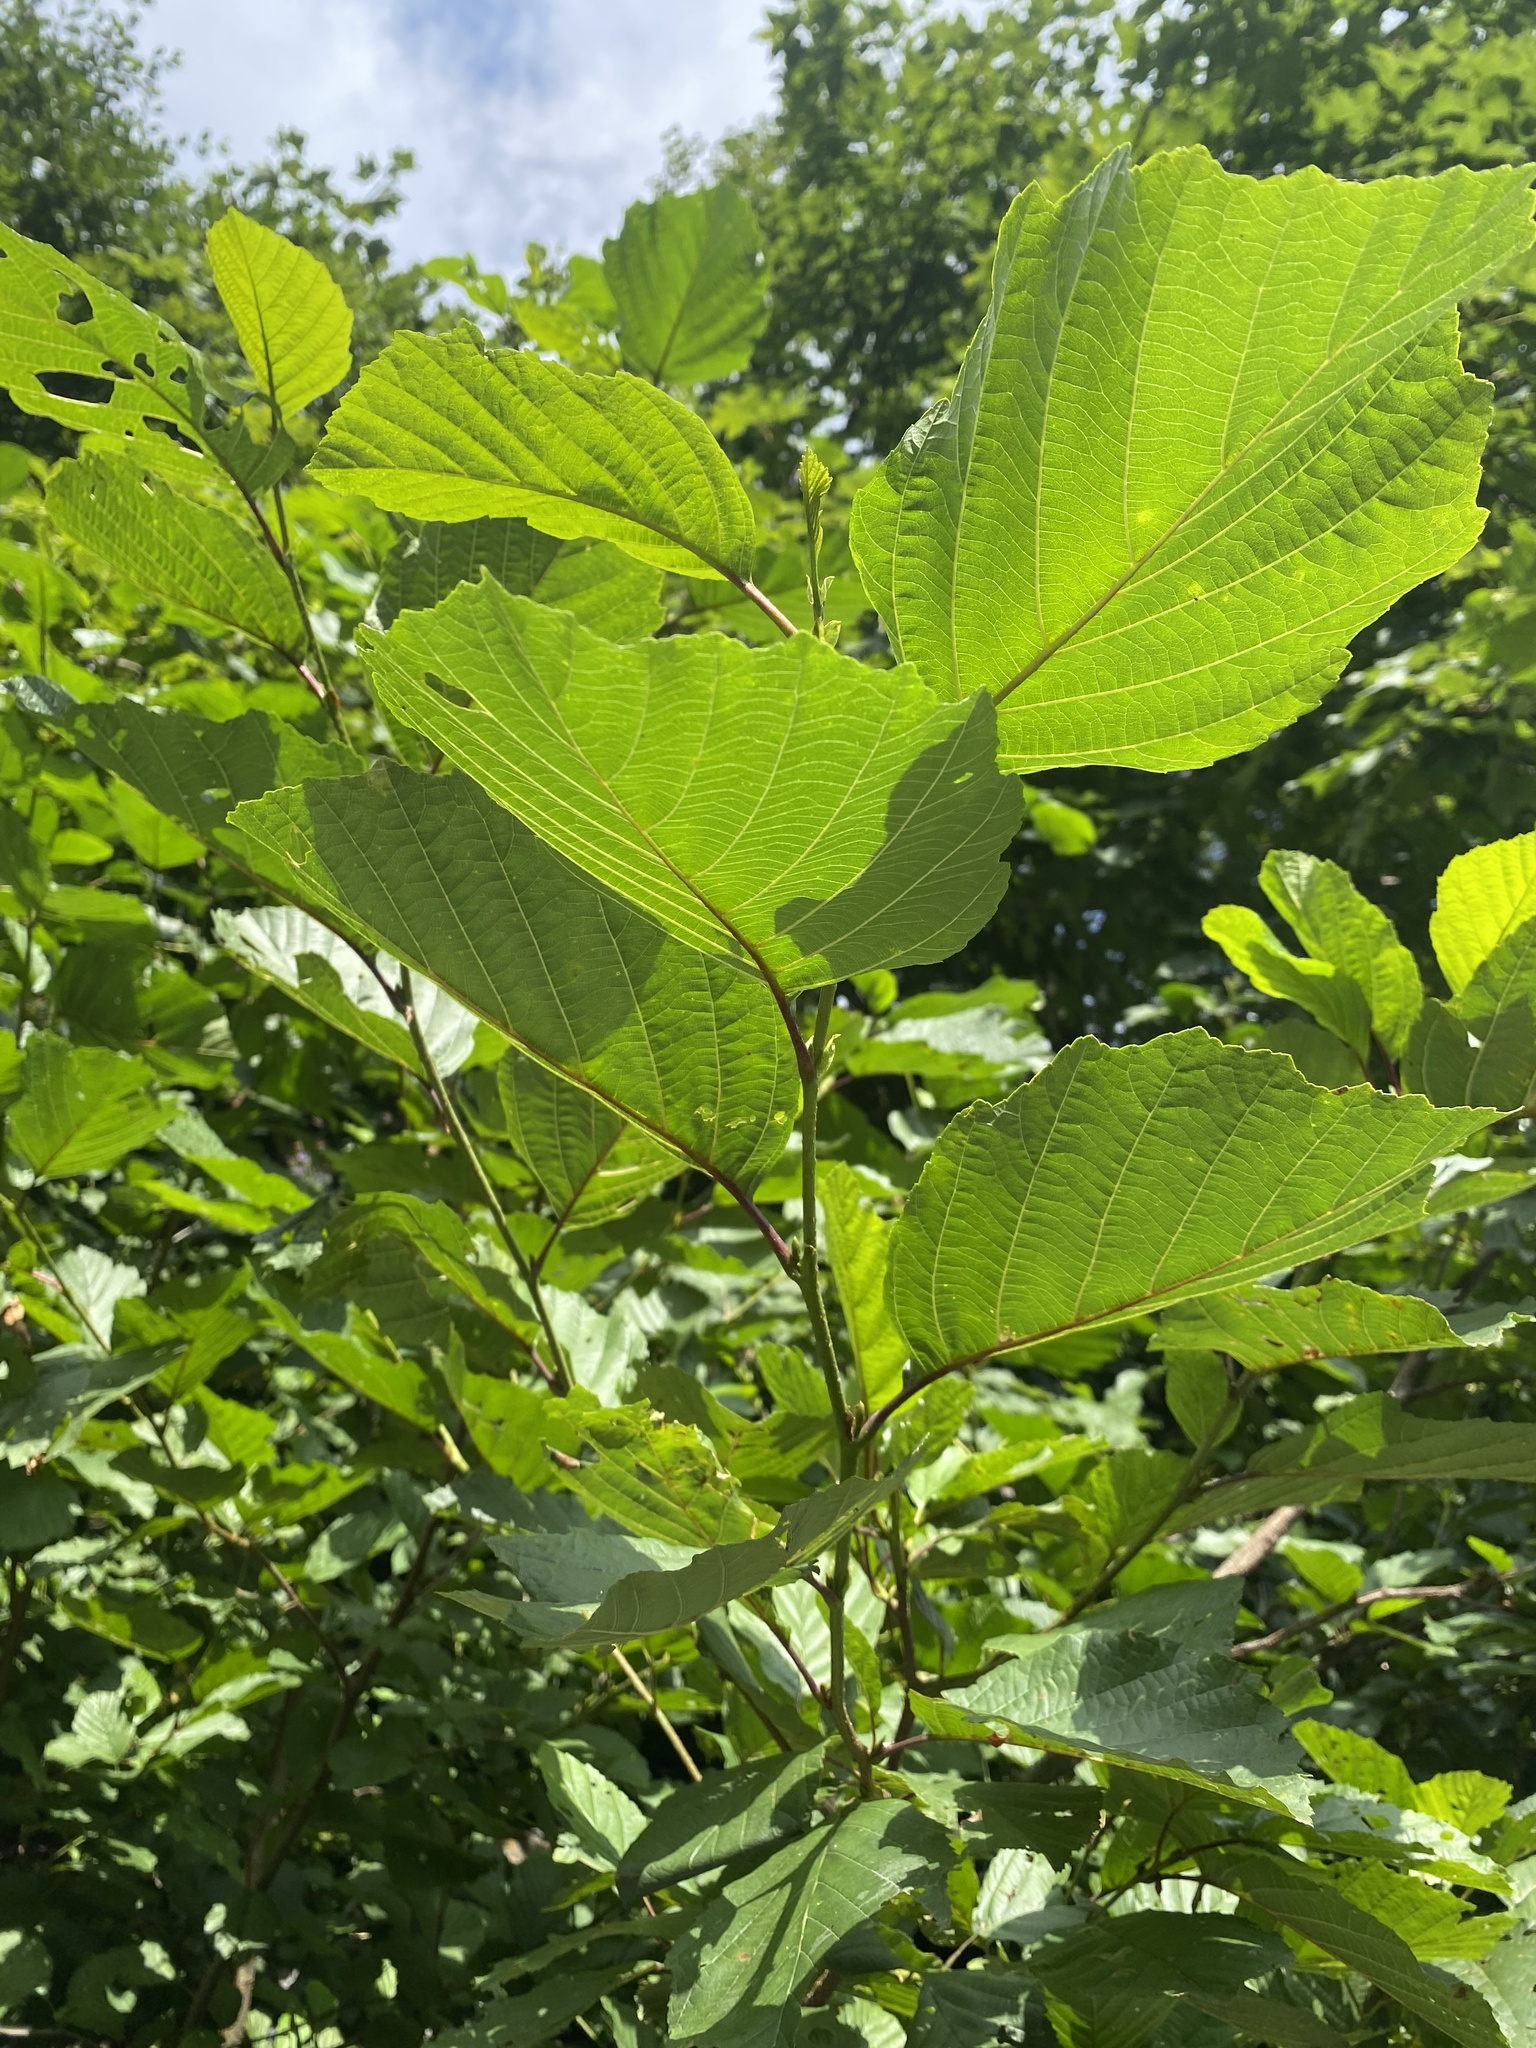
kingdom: Plantae
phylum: Tracheophyta
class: Magnoliopsida
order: Fagales
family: Betulaceae
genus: Alnus
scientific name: Alnus glutinosa
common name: Black alder
